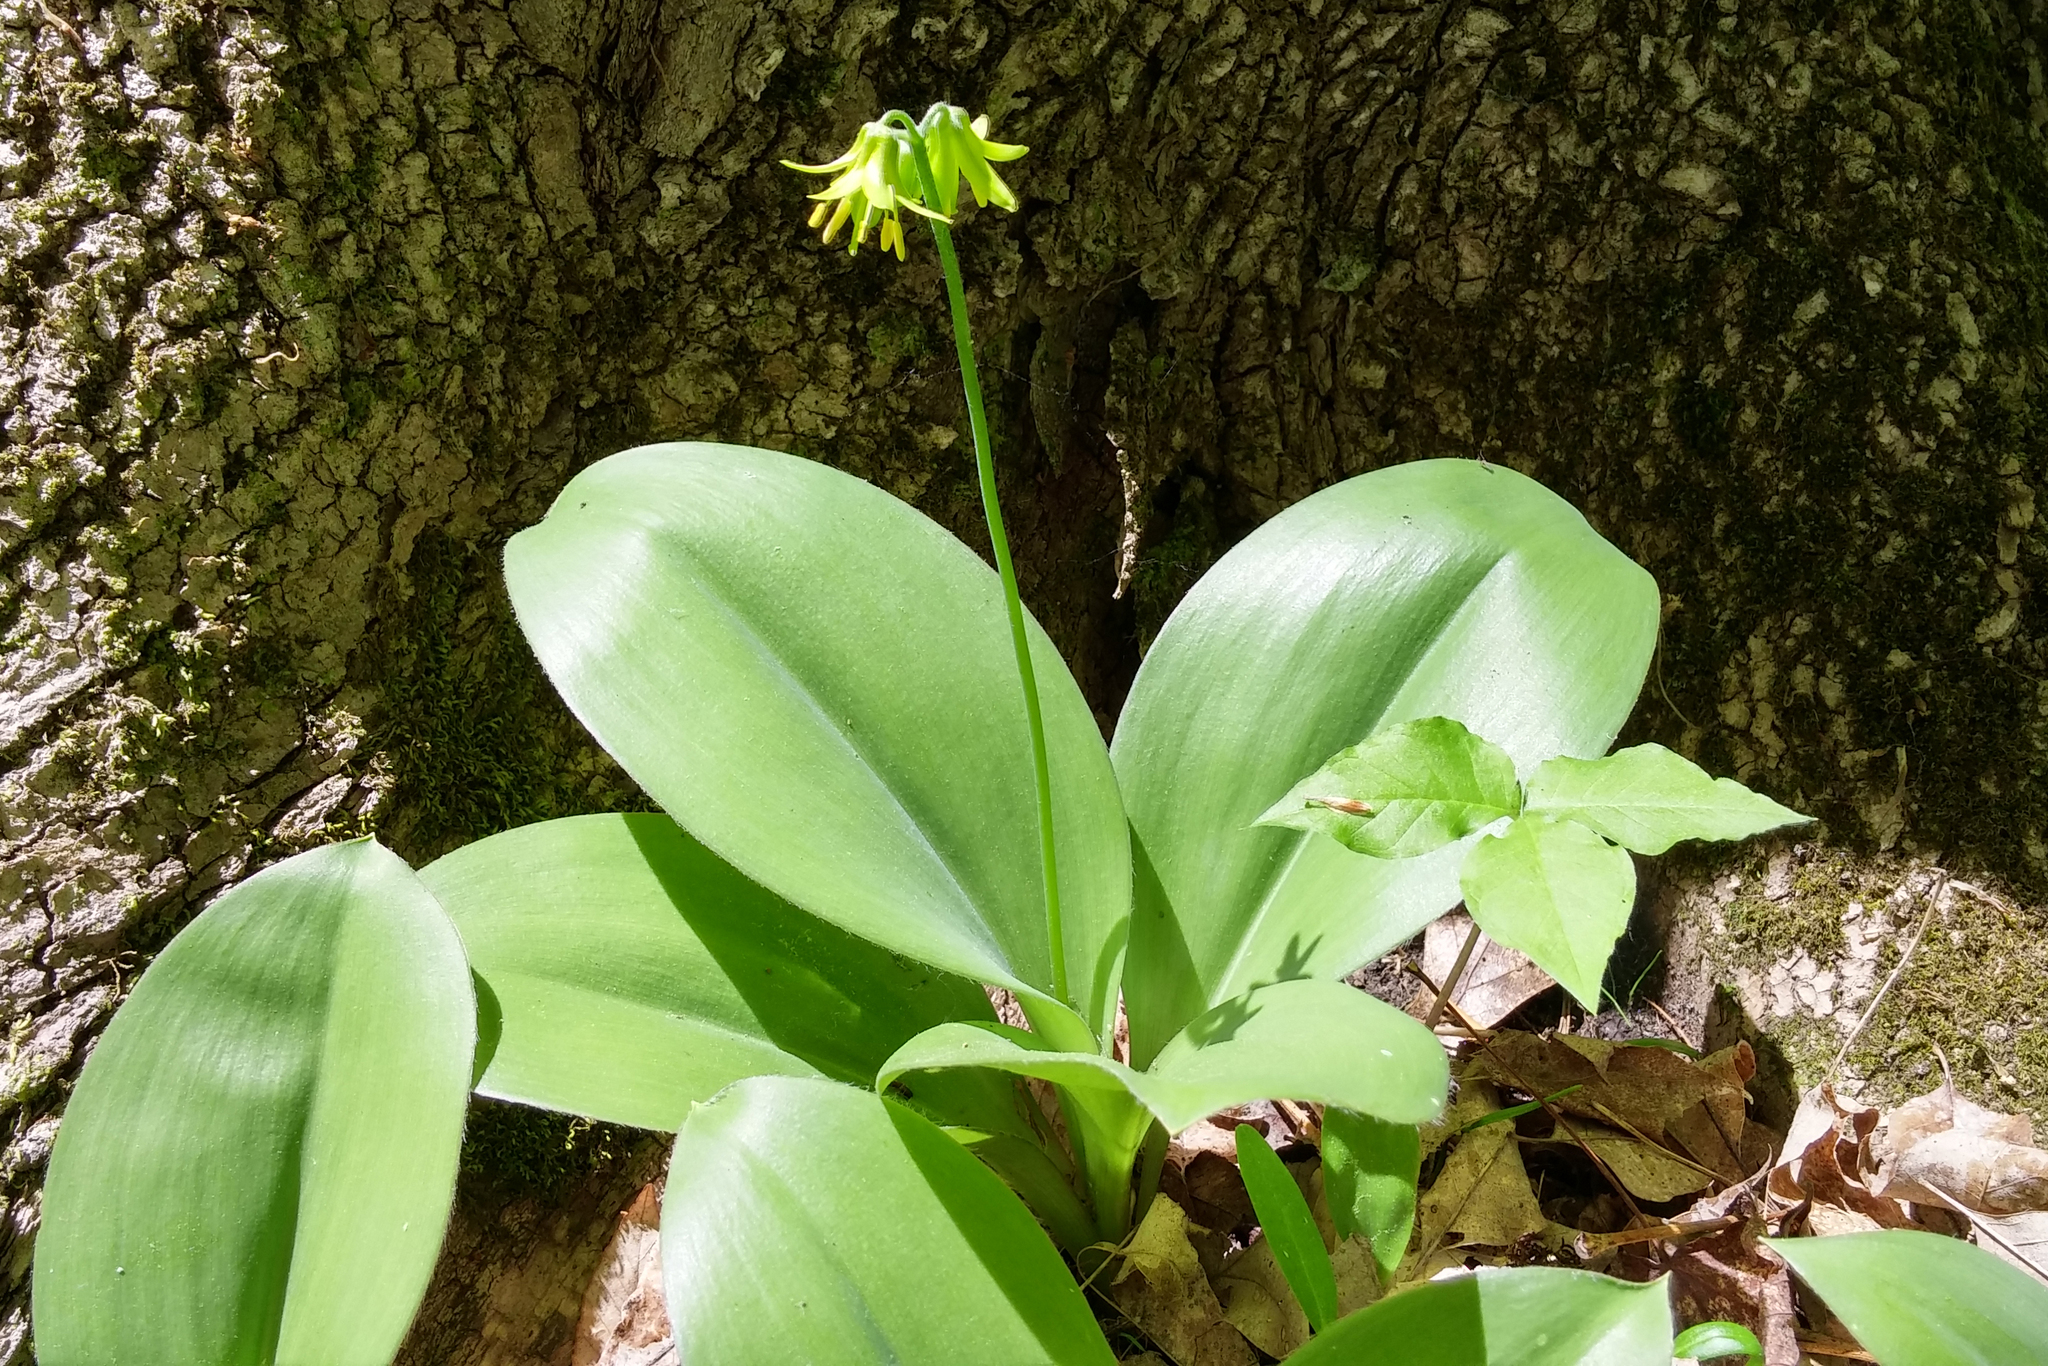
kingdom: Plantae
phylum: Tracheophyta
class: Liliopsida
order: Liliales
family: Liliaceae
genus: Clintonia
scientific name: Clintonia borealis
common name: Yellow clintonia
